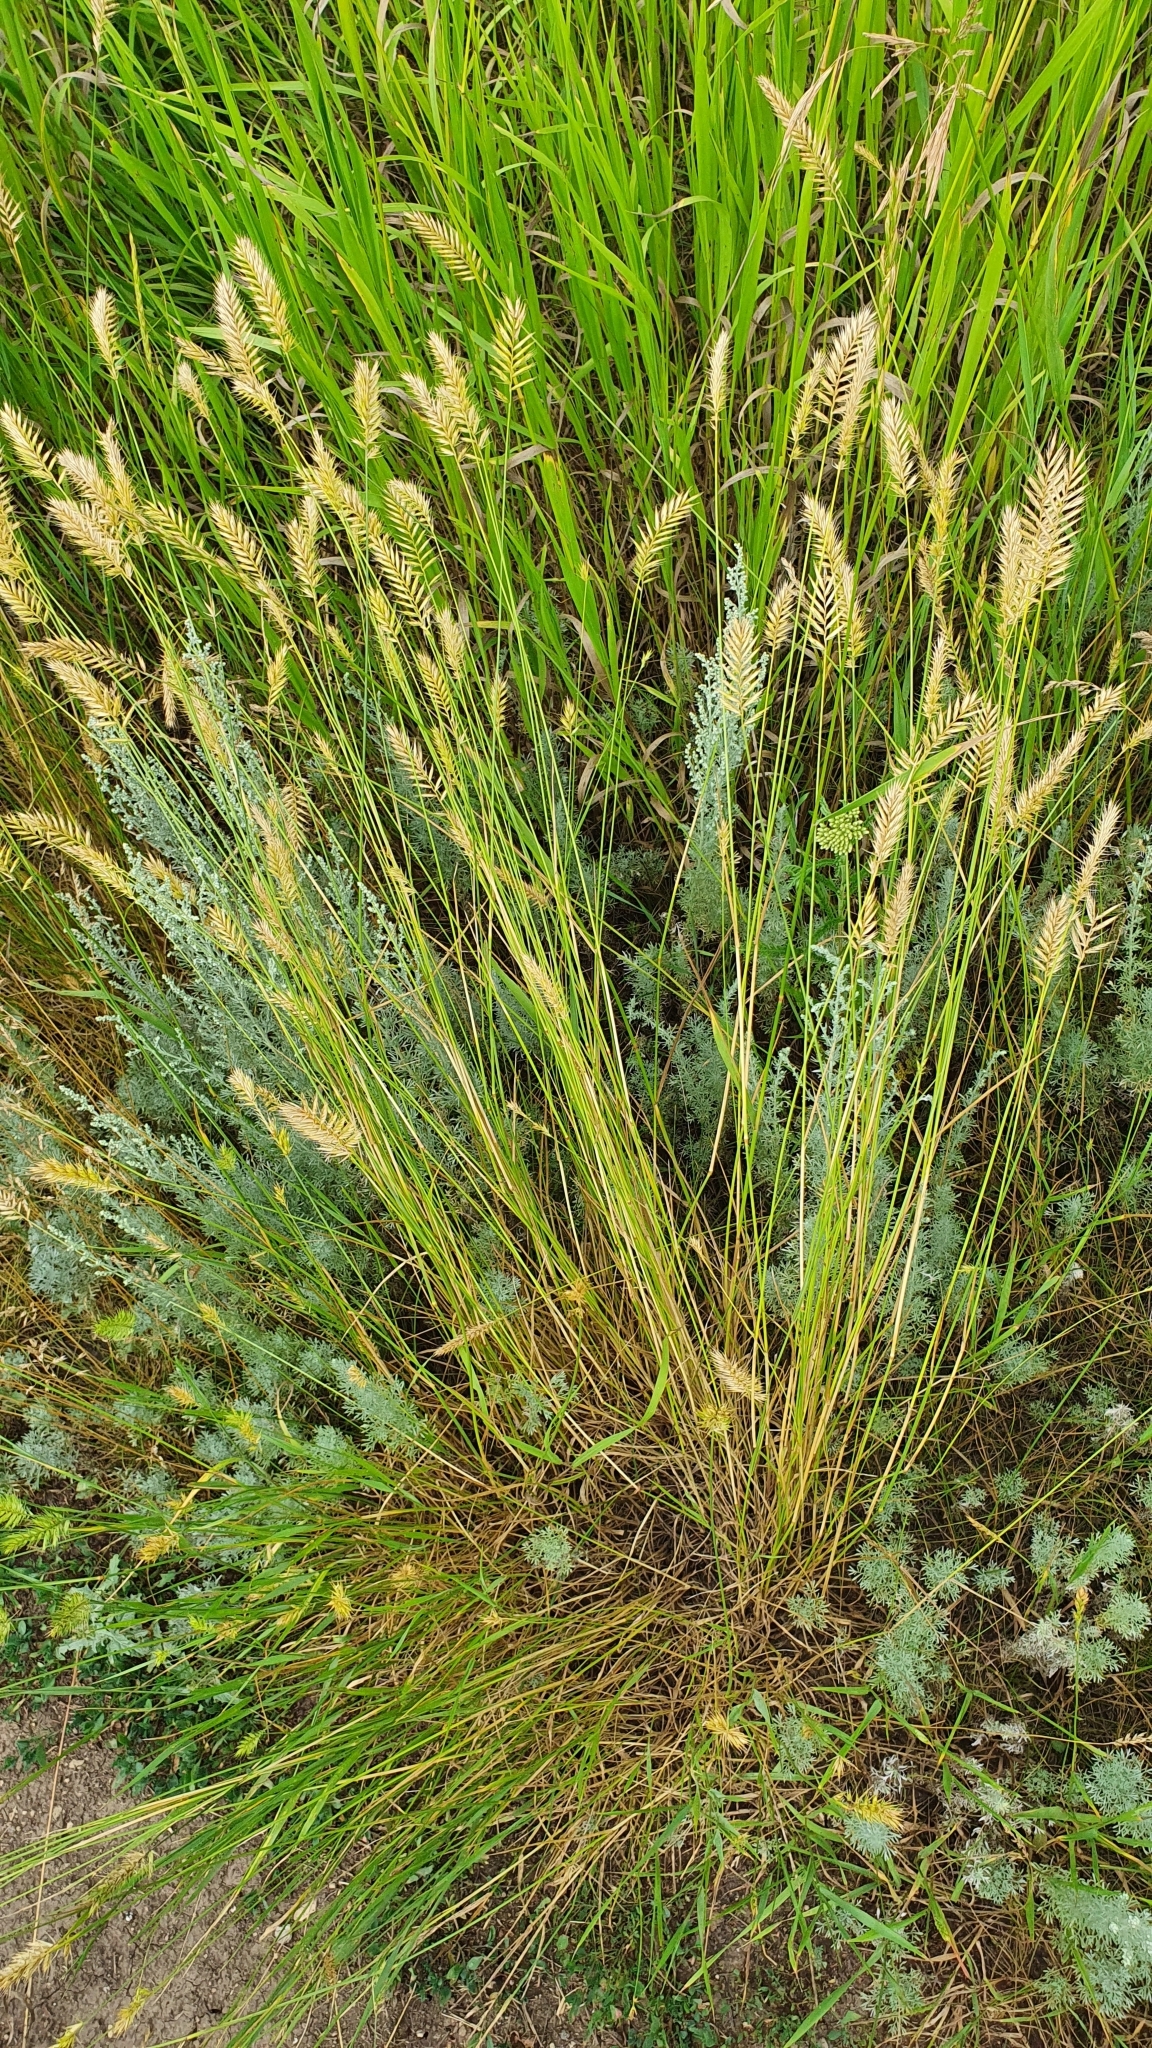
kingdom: Plantae
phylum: Tracheophyta
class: Liliopsida
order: Poales
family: Poaceae
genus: Agropyron
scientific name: Agropyron cristatum
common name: Crested wheatgrass
